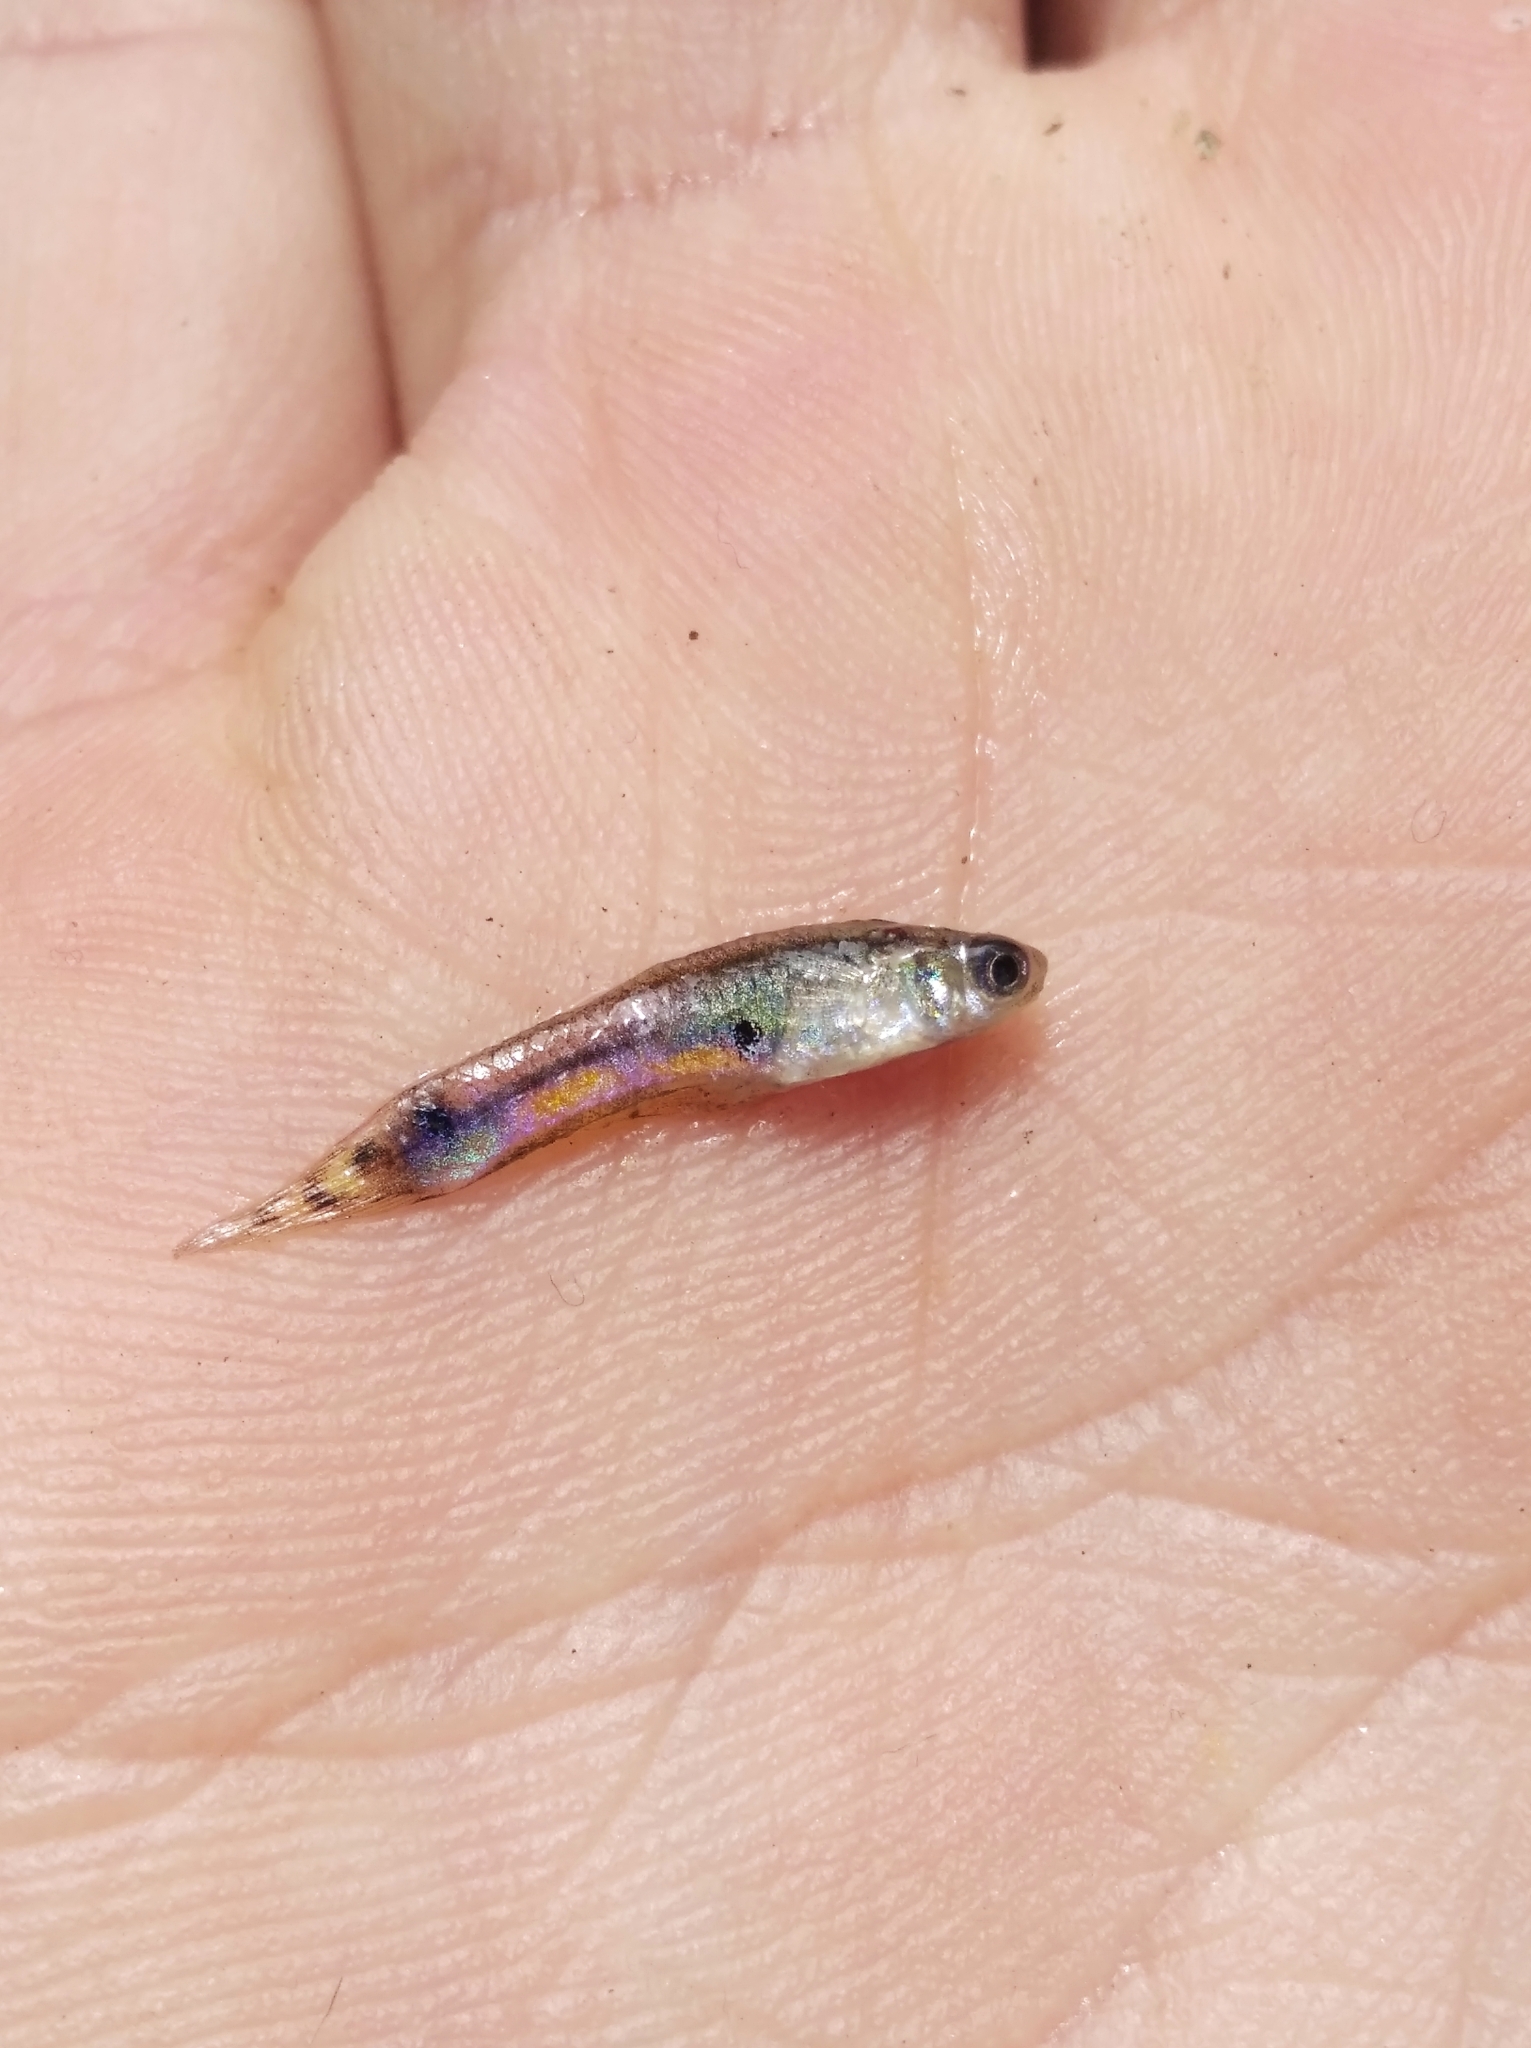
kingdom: Animalia
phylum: Chordata
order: Cyprinodontiformes
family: Poeciliidae
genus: Poecilia
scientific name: Poecilia reticulata
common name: Guppy
